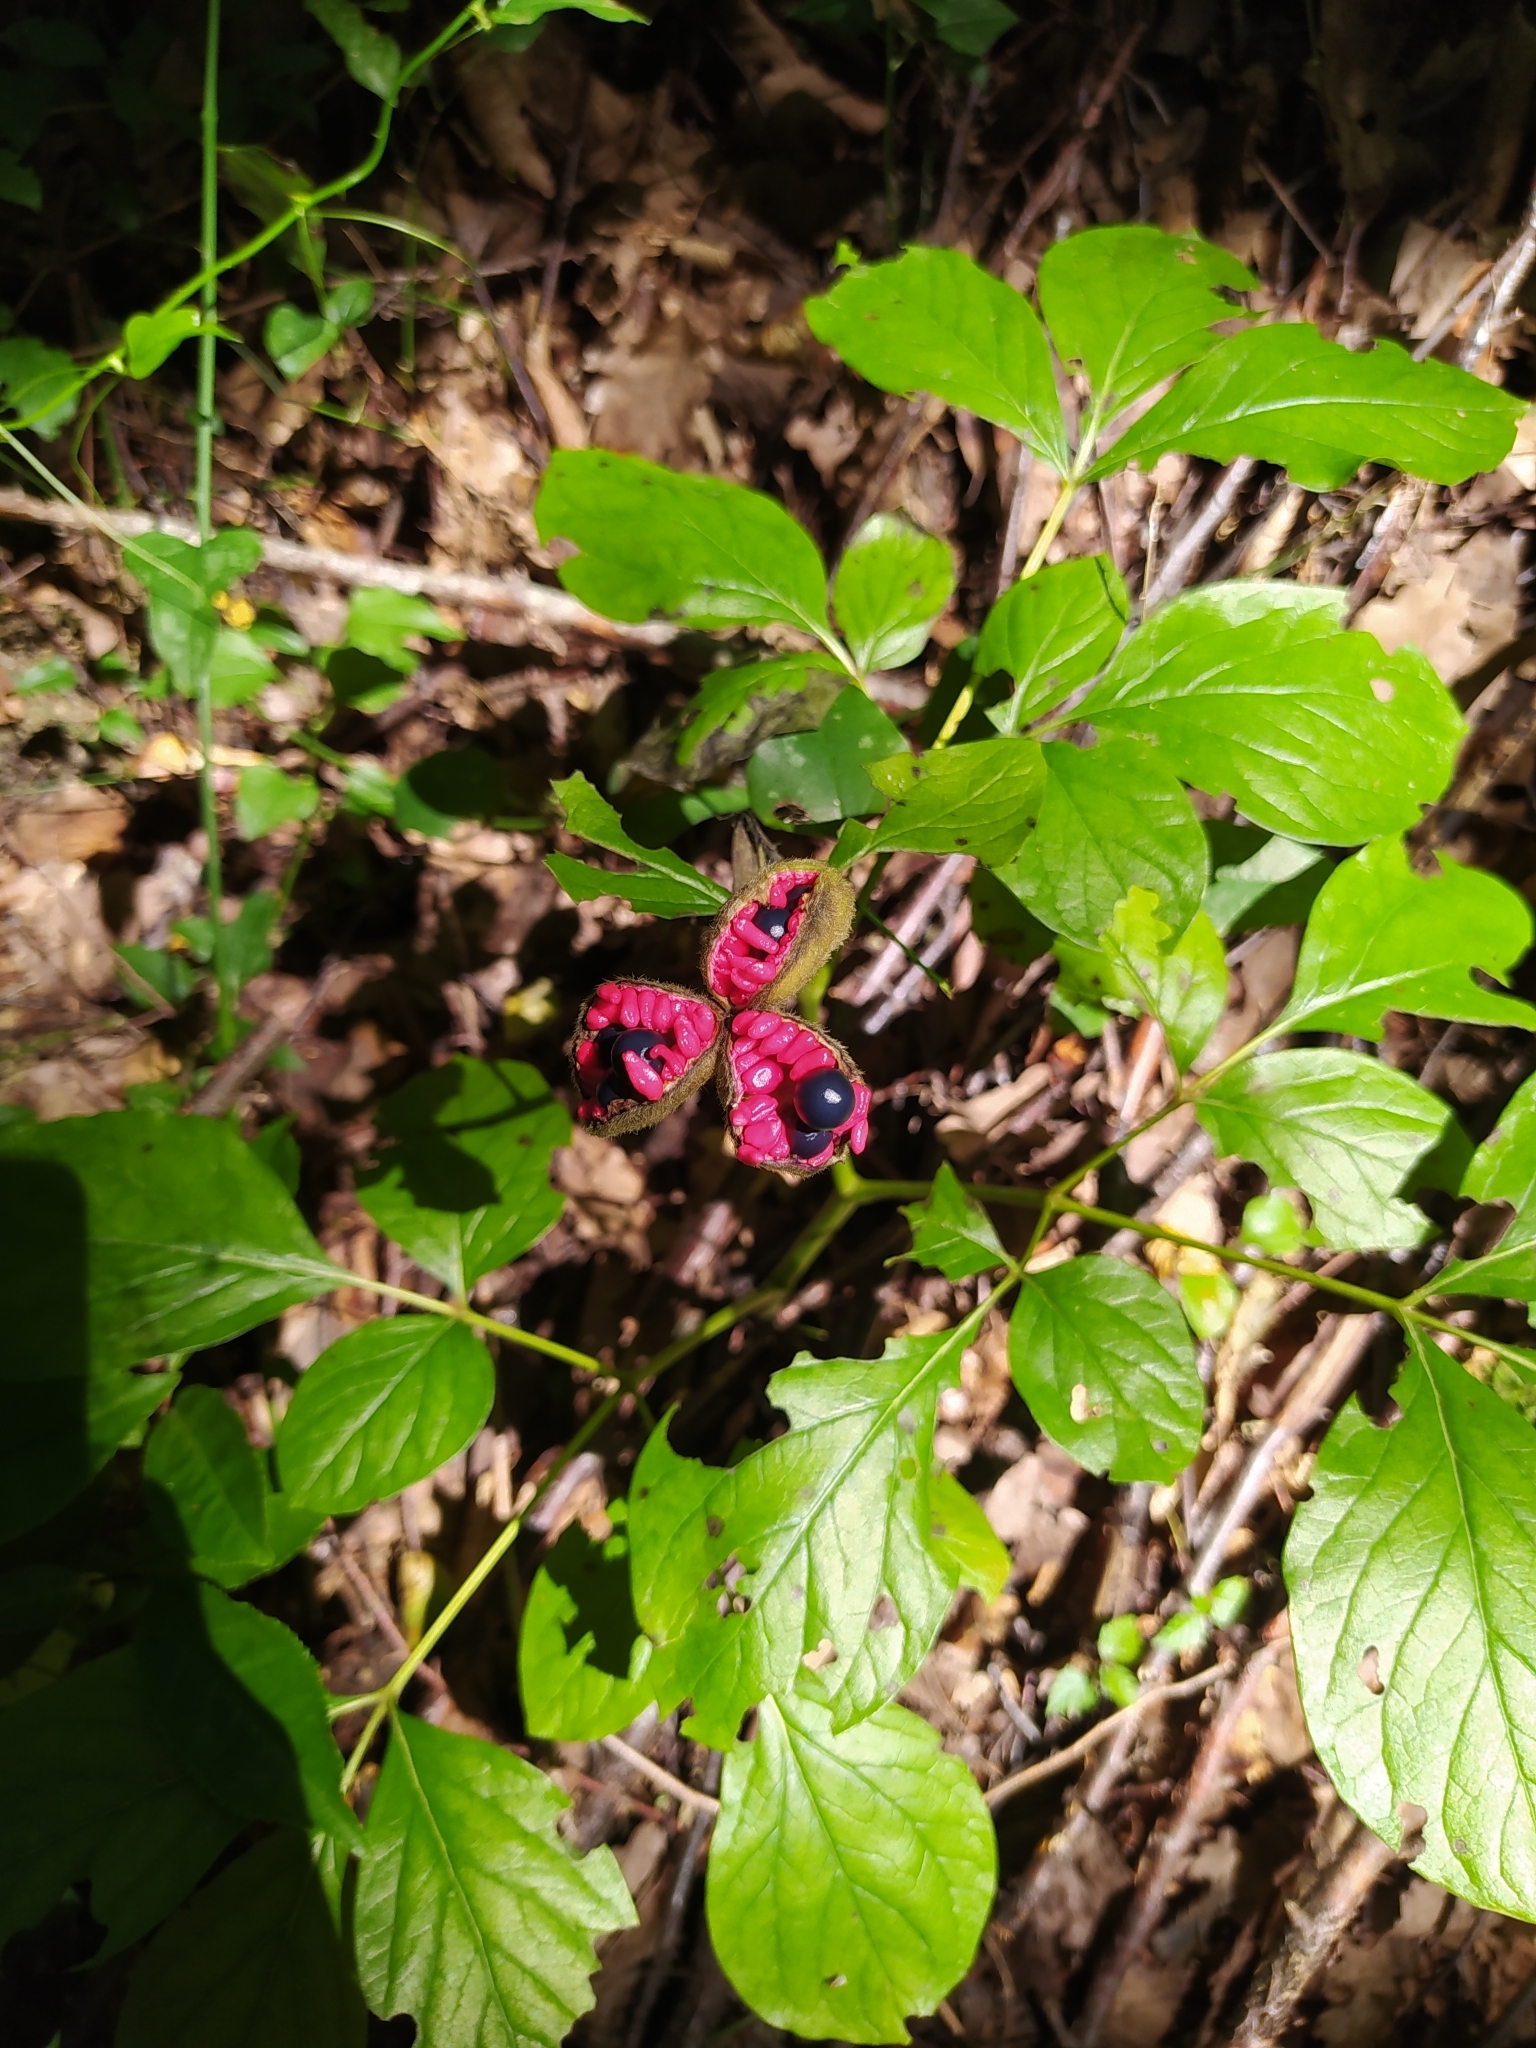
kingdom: Plantae
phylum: Tracheophyta
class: Magnoliopsida
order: Saxifragales
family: Paeoniaceae
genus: Paeonia
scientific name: Paeonia caucasica
